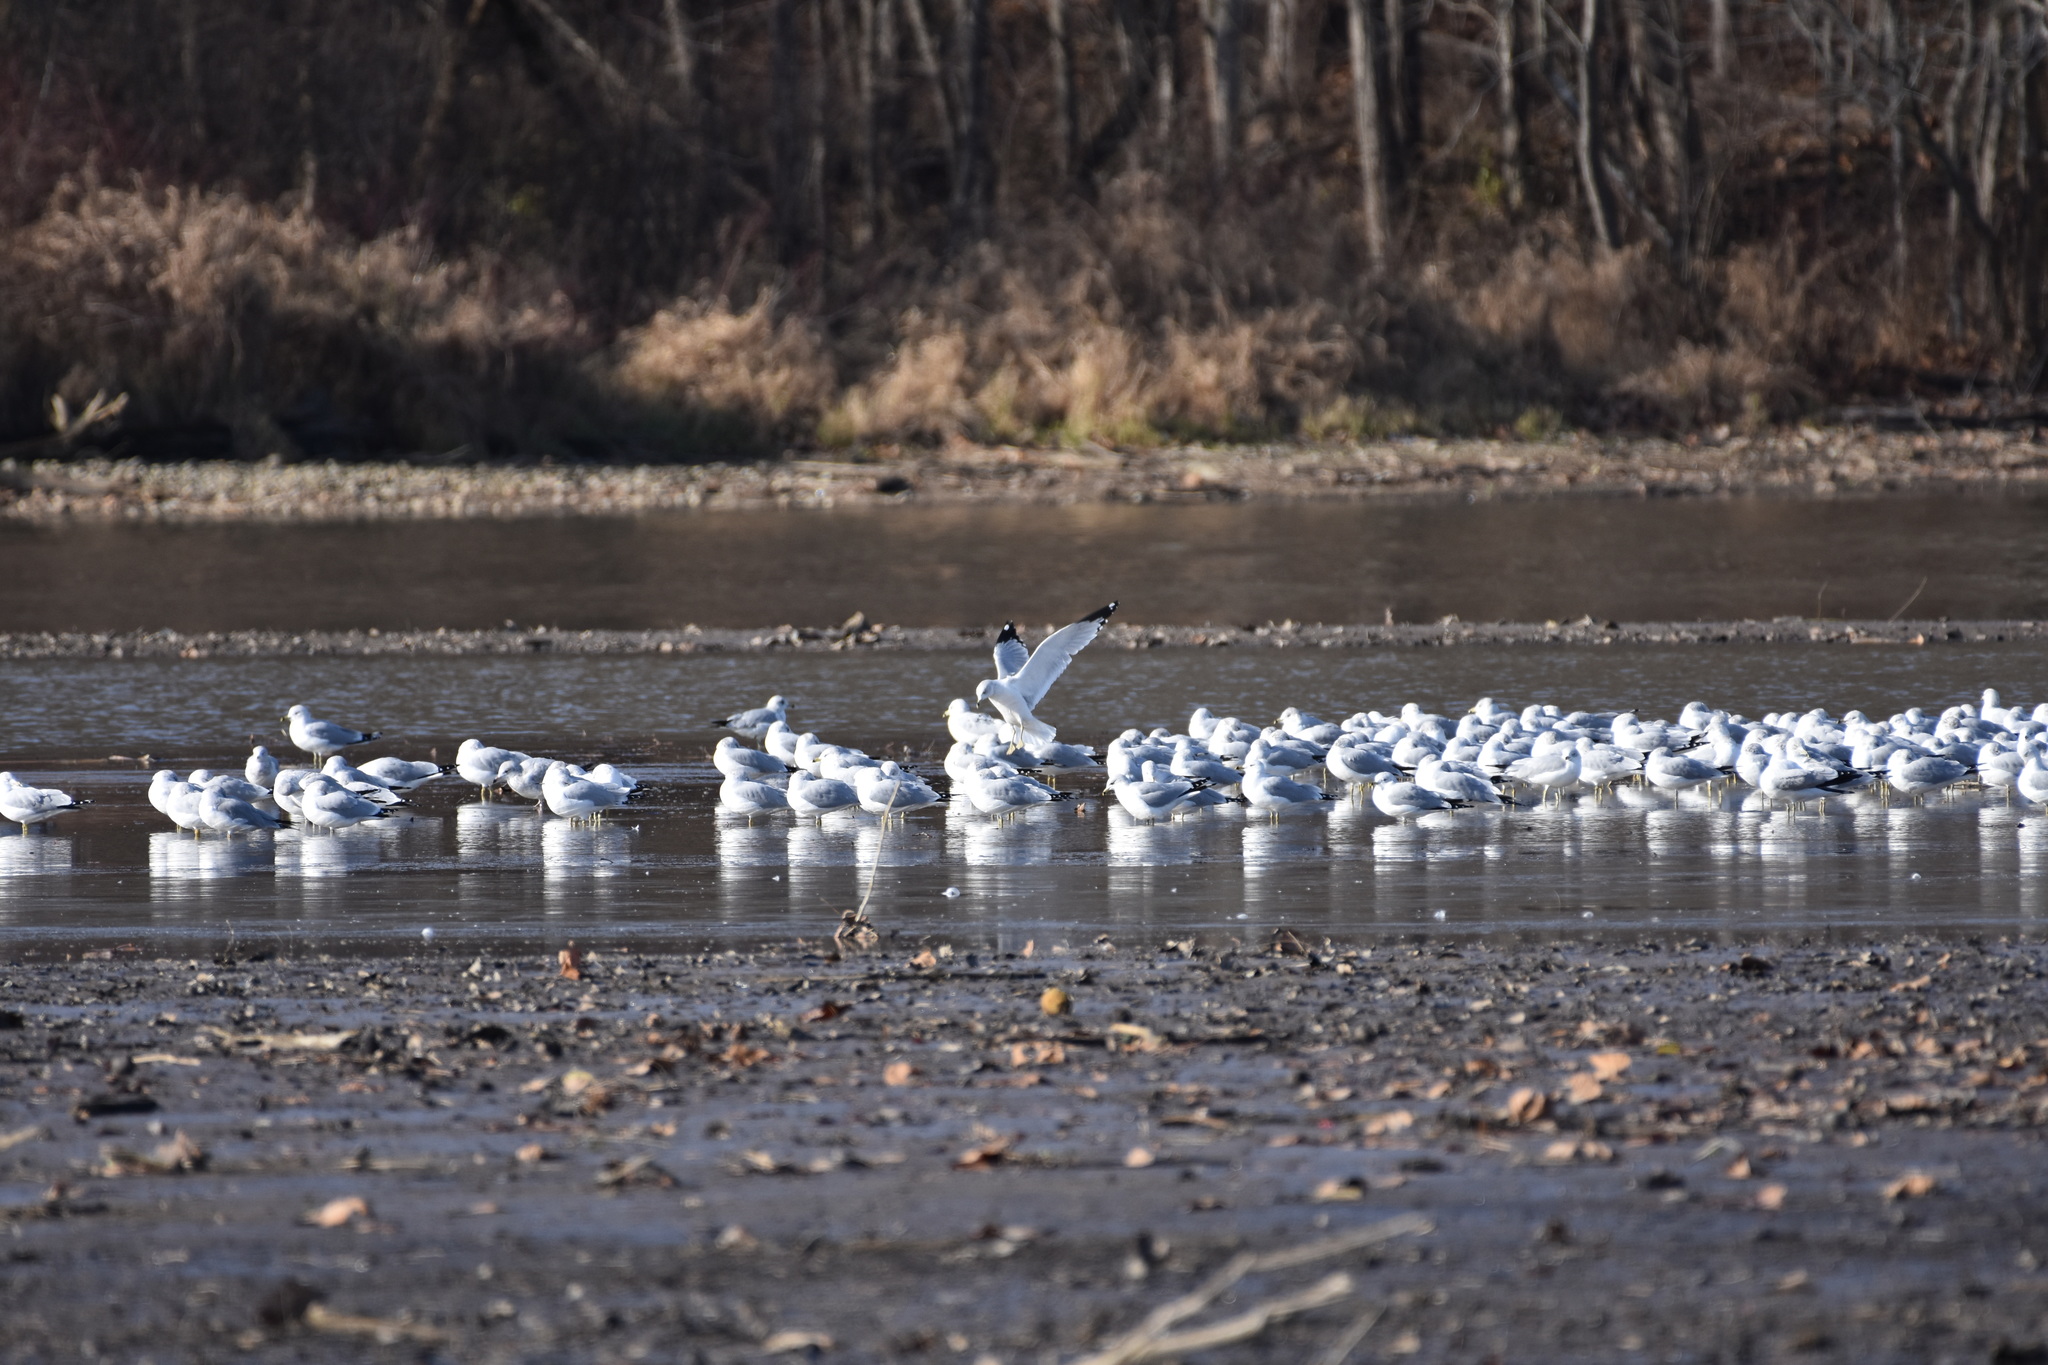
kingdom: Animalia
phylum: Chordata
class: Aves
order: Charadriiformes
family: Laridae
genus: Larus
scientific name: Larus delawarensis
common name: Ring-billed gull
